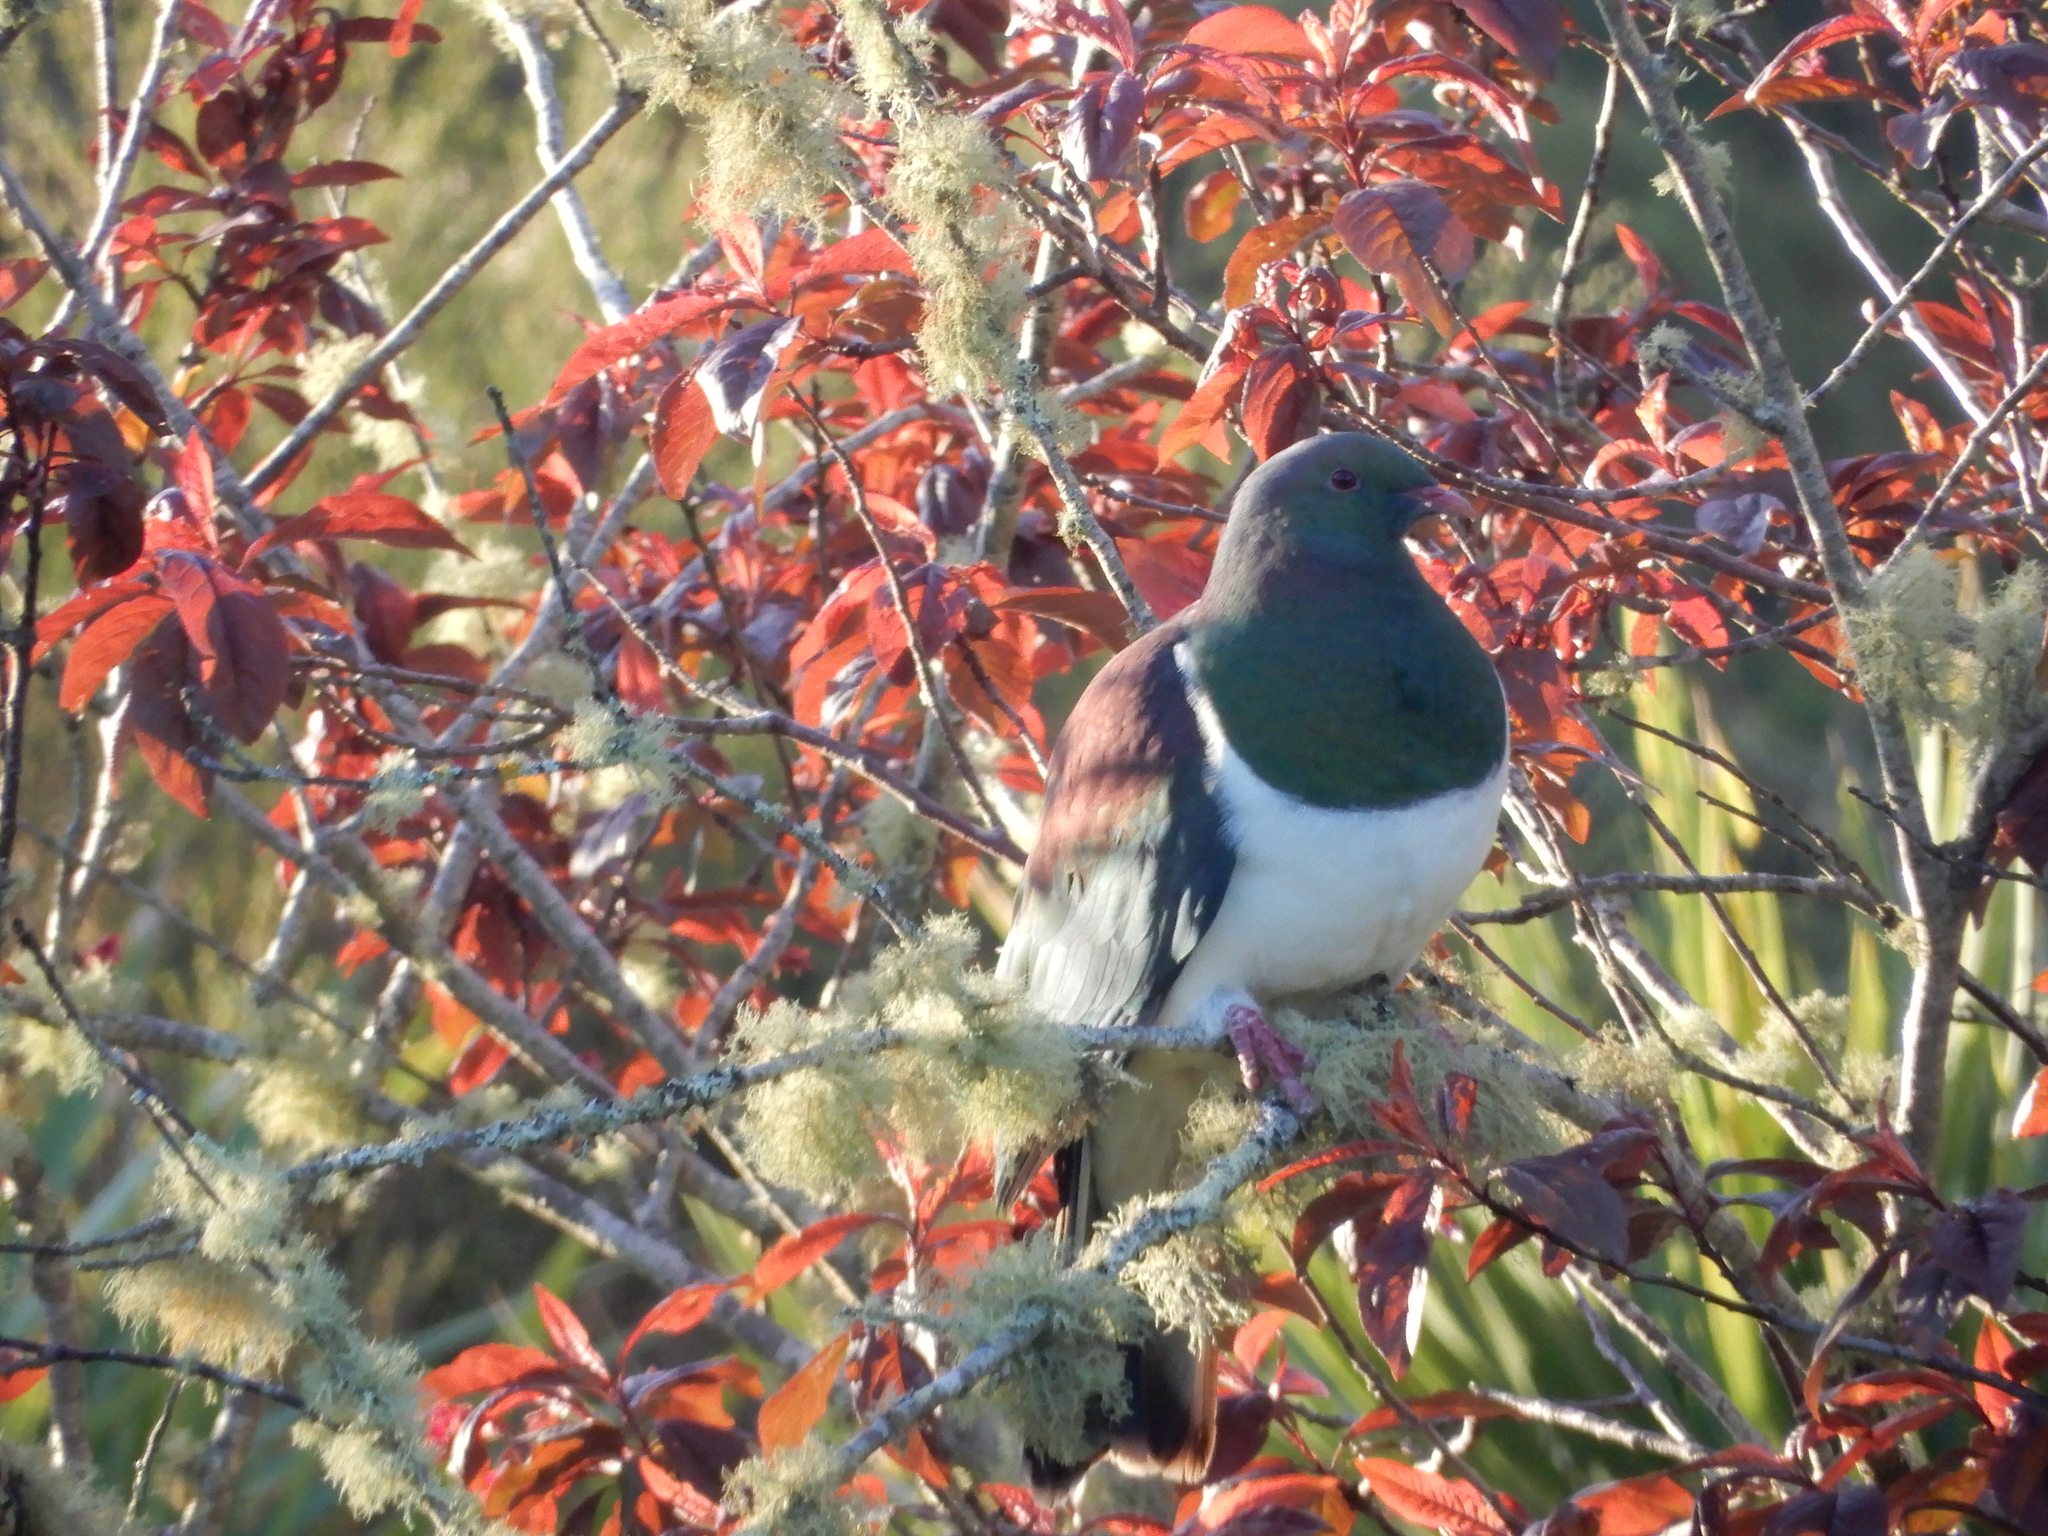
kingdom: Animalia
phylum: Chordata
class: Aves
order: Columbiformes
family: Columbidae
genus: Hemiphaga
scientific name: Hemiphaga novaeseelandiae
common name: New zealand pigeon
